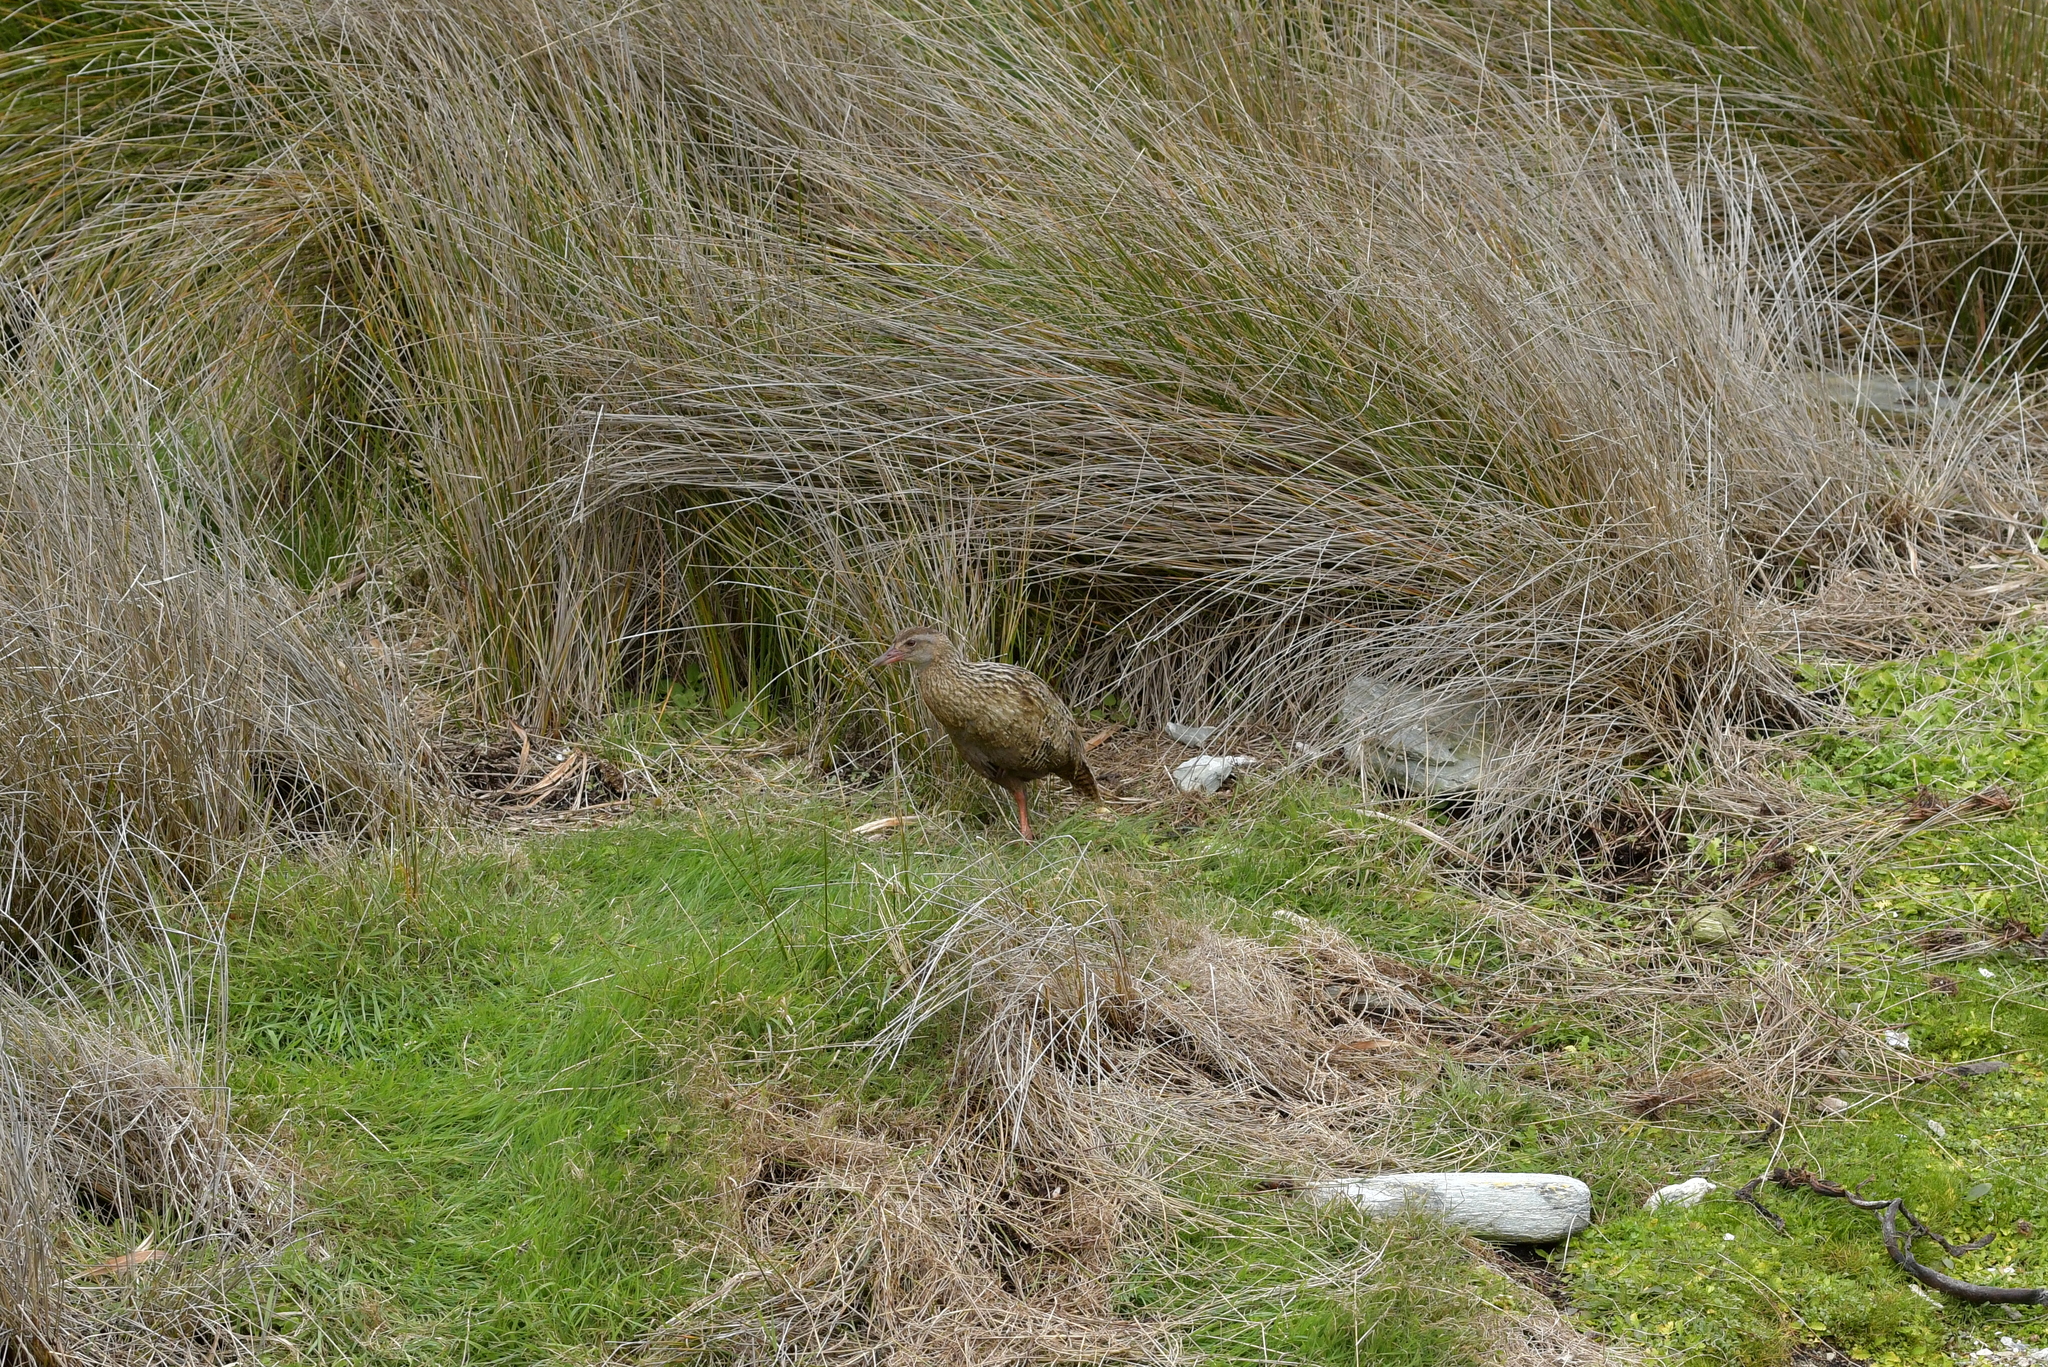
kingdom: Animalia
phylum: Chordata
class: Aves
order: Gruiformes
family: Rallidae
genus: Gallirallus
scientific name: Gallirallus australis
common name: Weka
